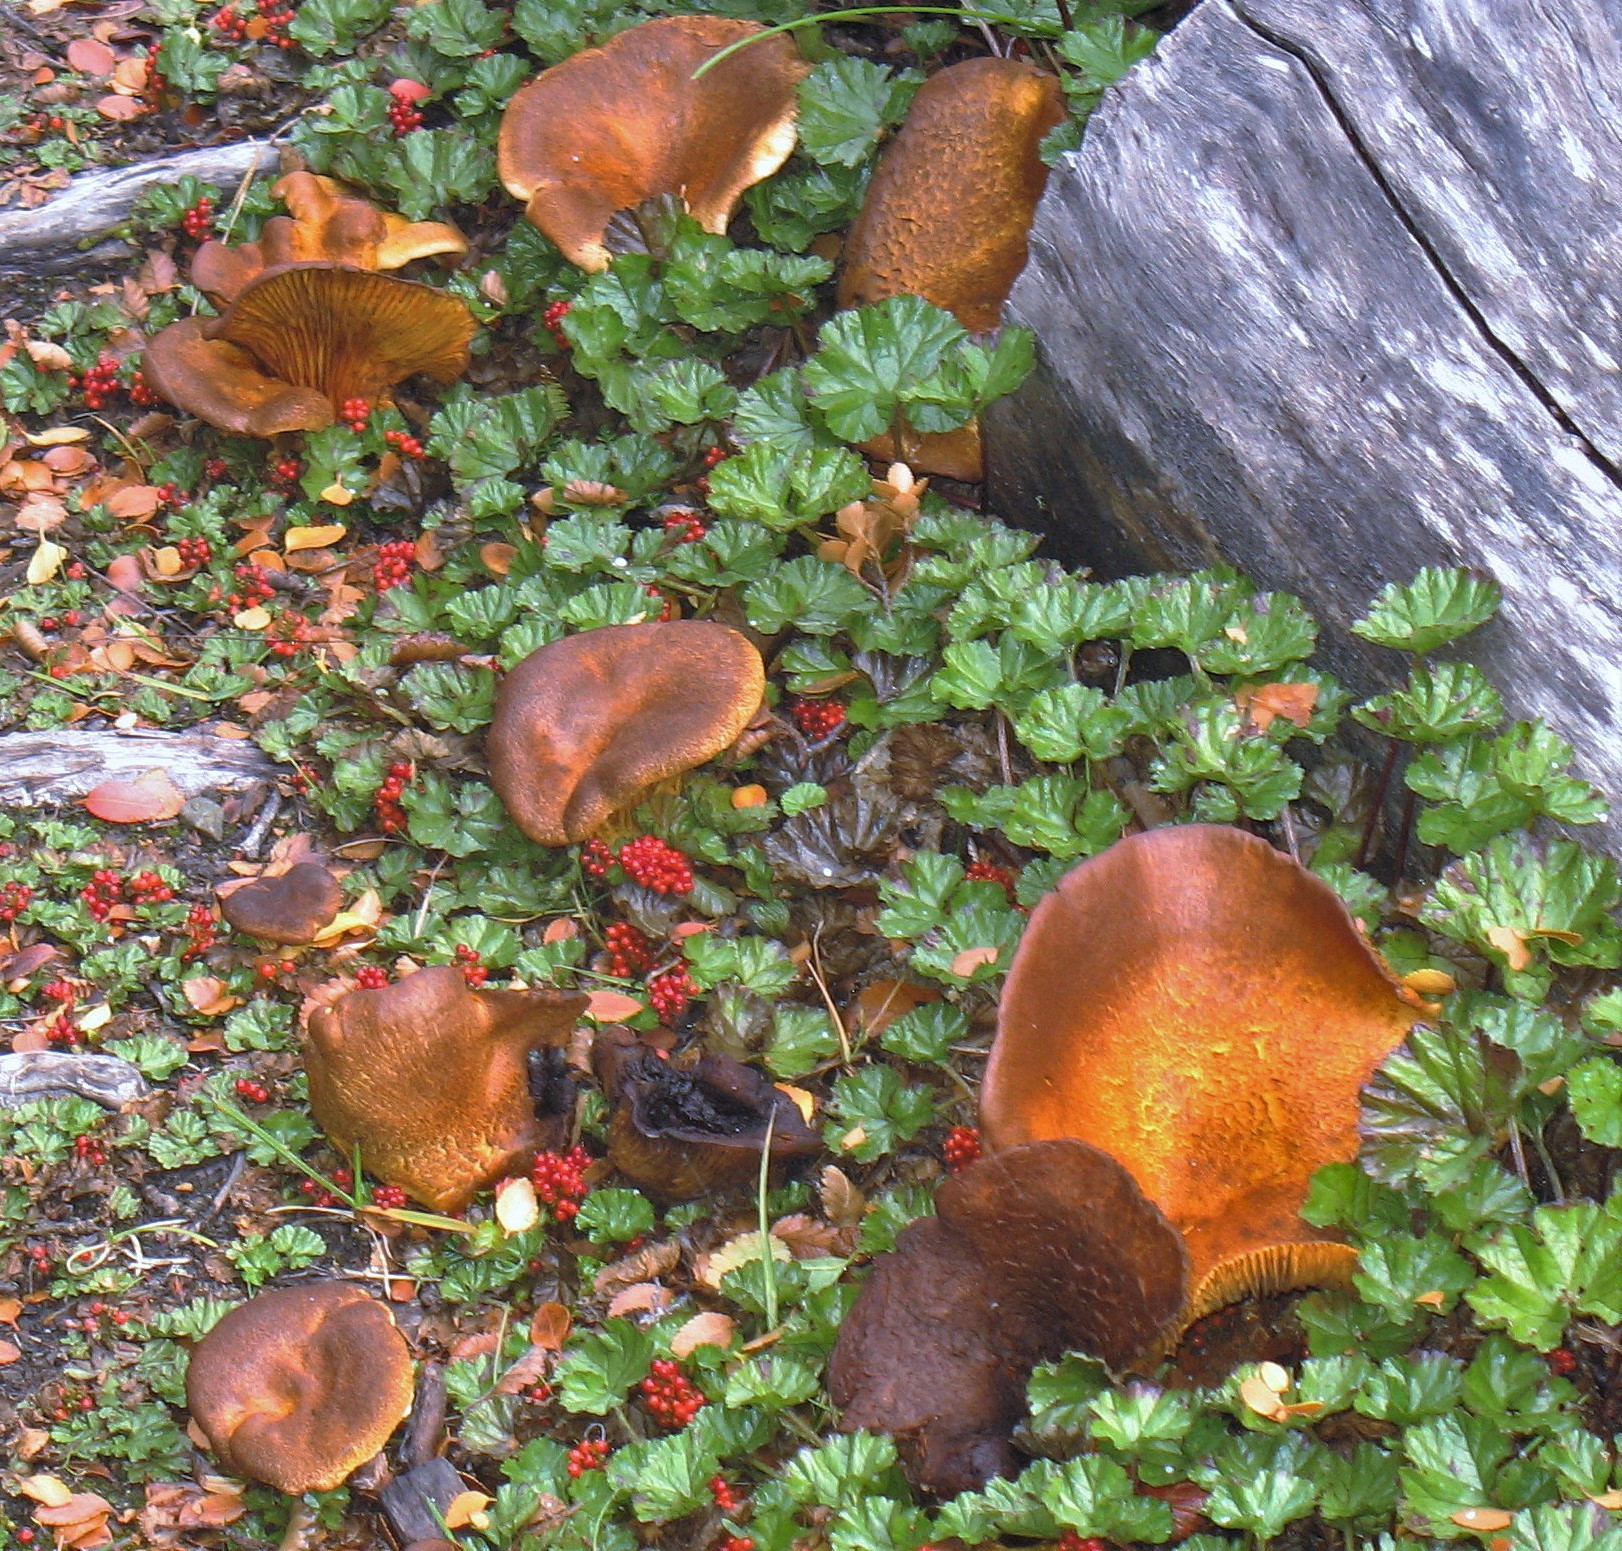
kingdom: Fungi
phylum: Basidiomycota
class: Agaricomycetes
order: Boletales
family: Serpulaceae
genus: Austropaxillus
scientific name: Austropaxillus statuum
